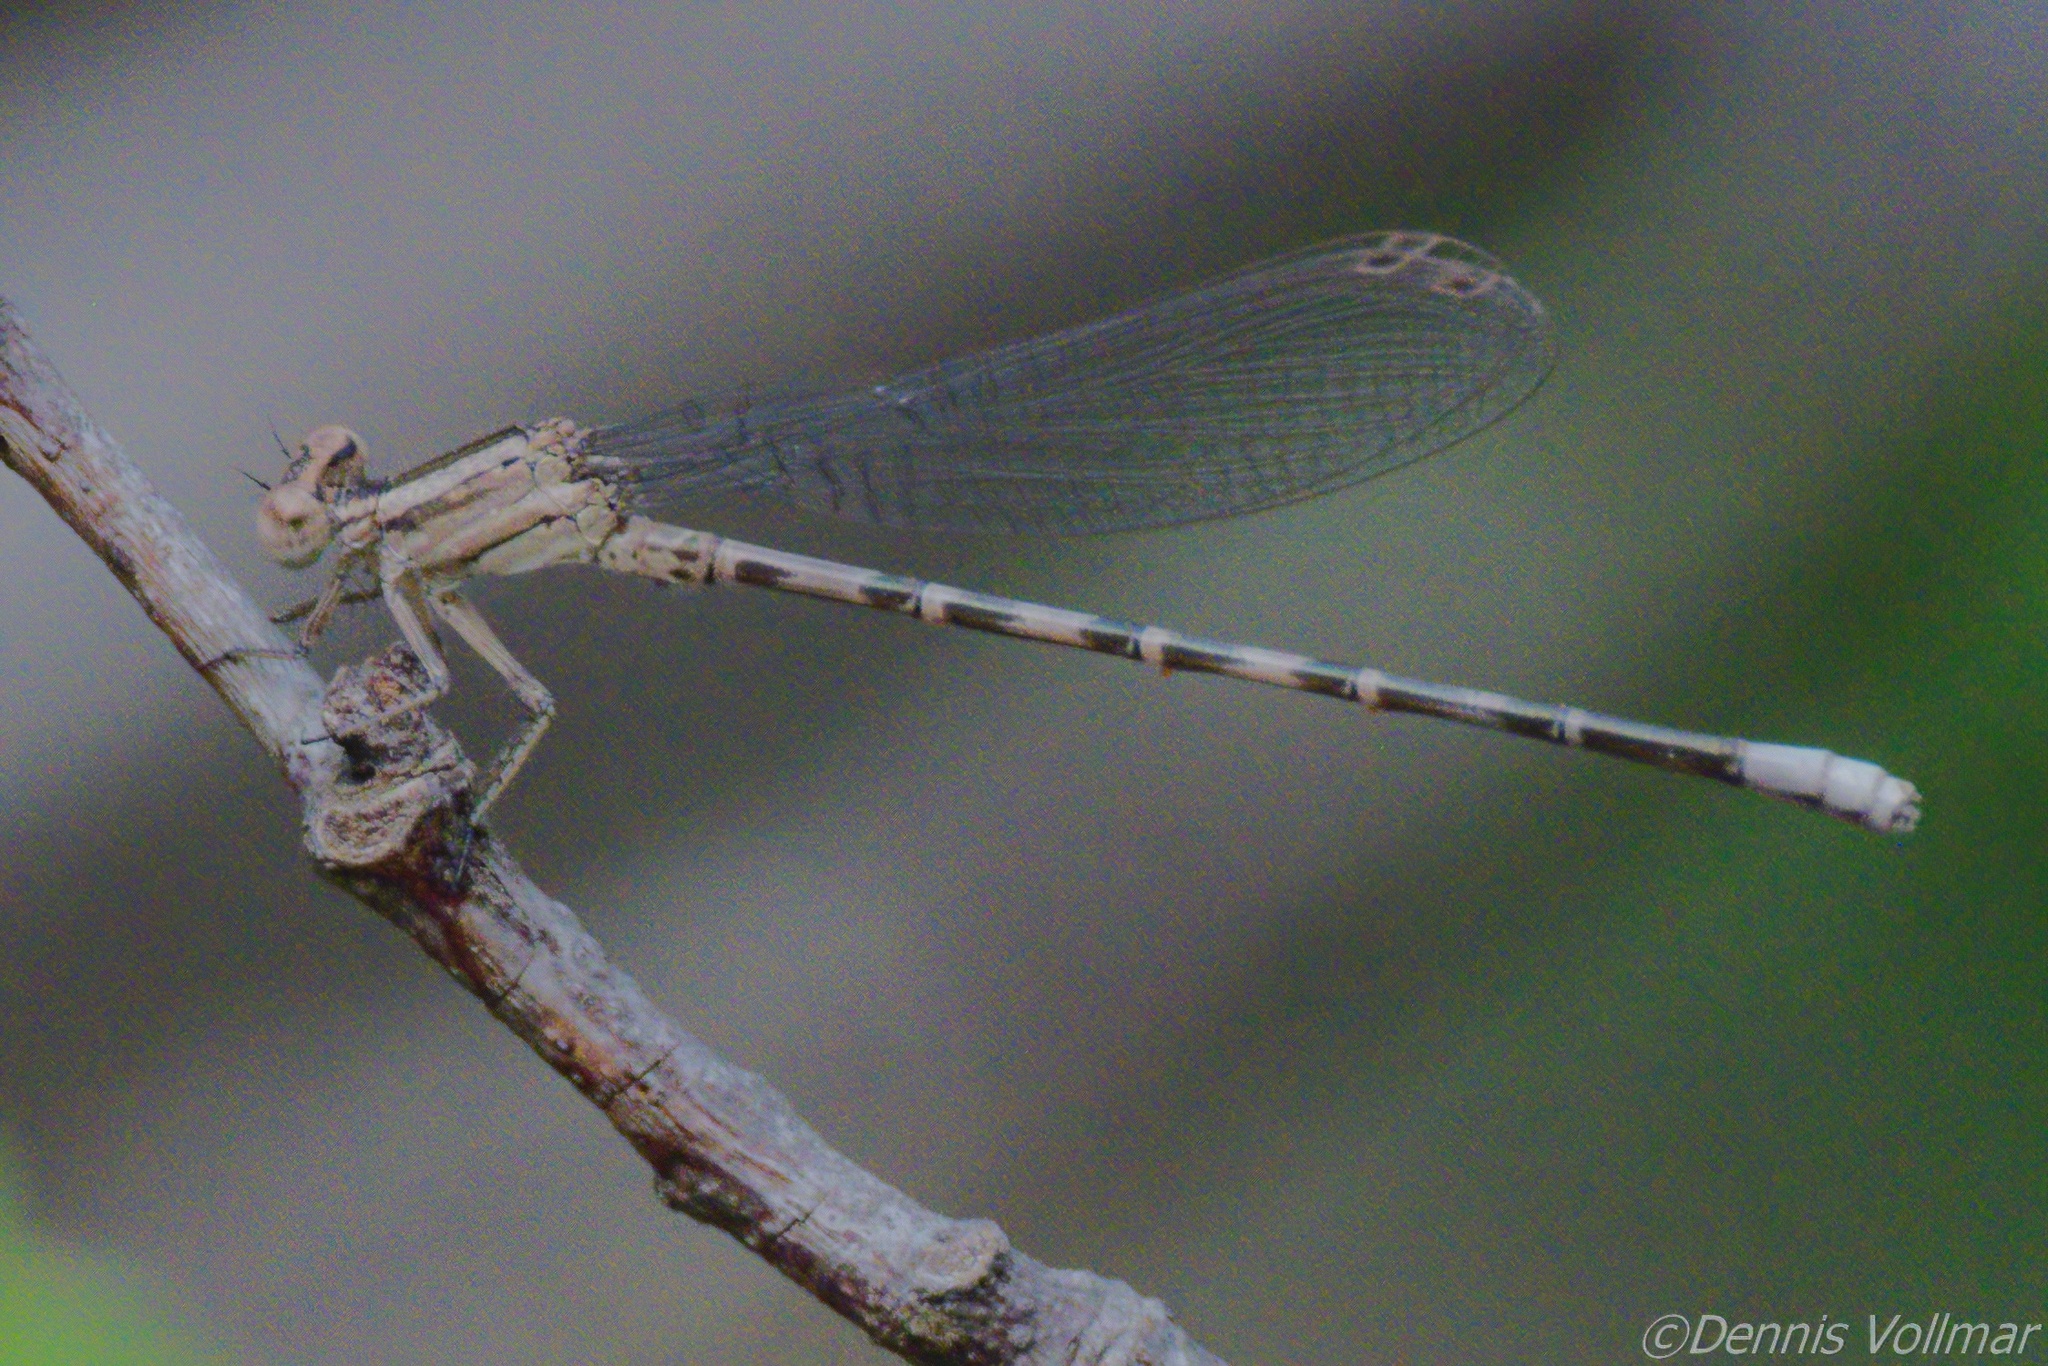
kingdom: Animalia
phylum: Arthropoda
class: Insecta
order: Odonata
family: Coenagrionidae
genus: Argia
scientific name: Argia immunda
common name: Kiowa dancer
